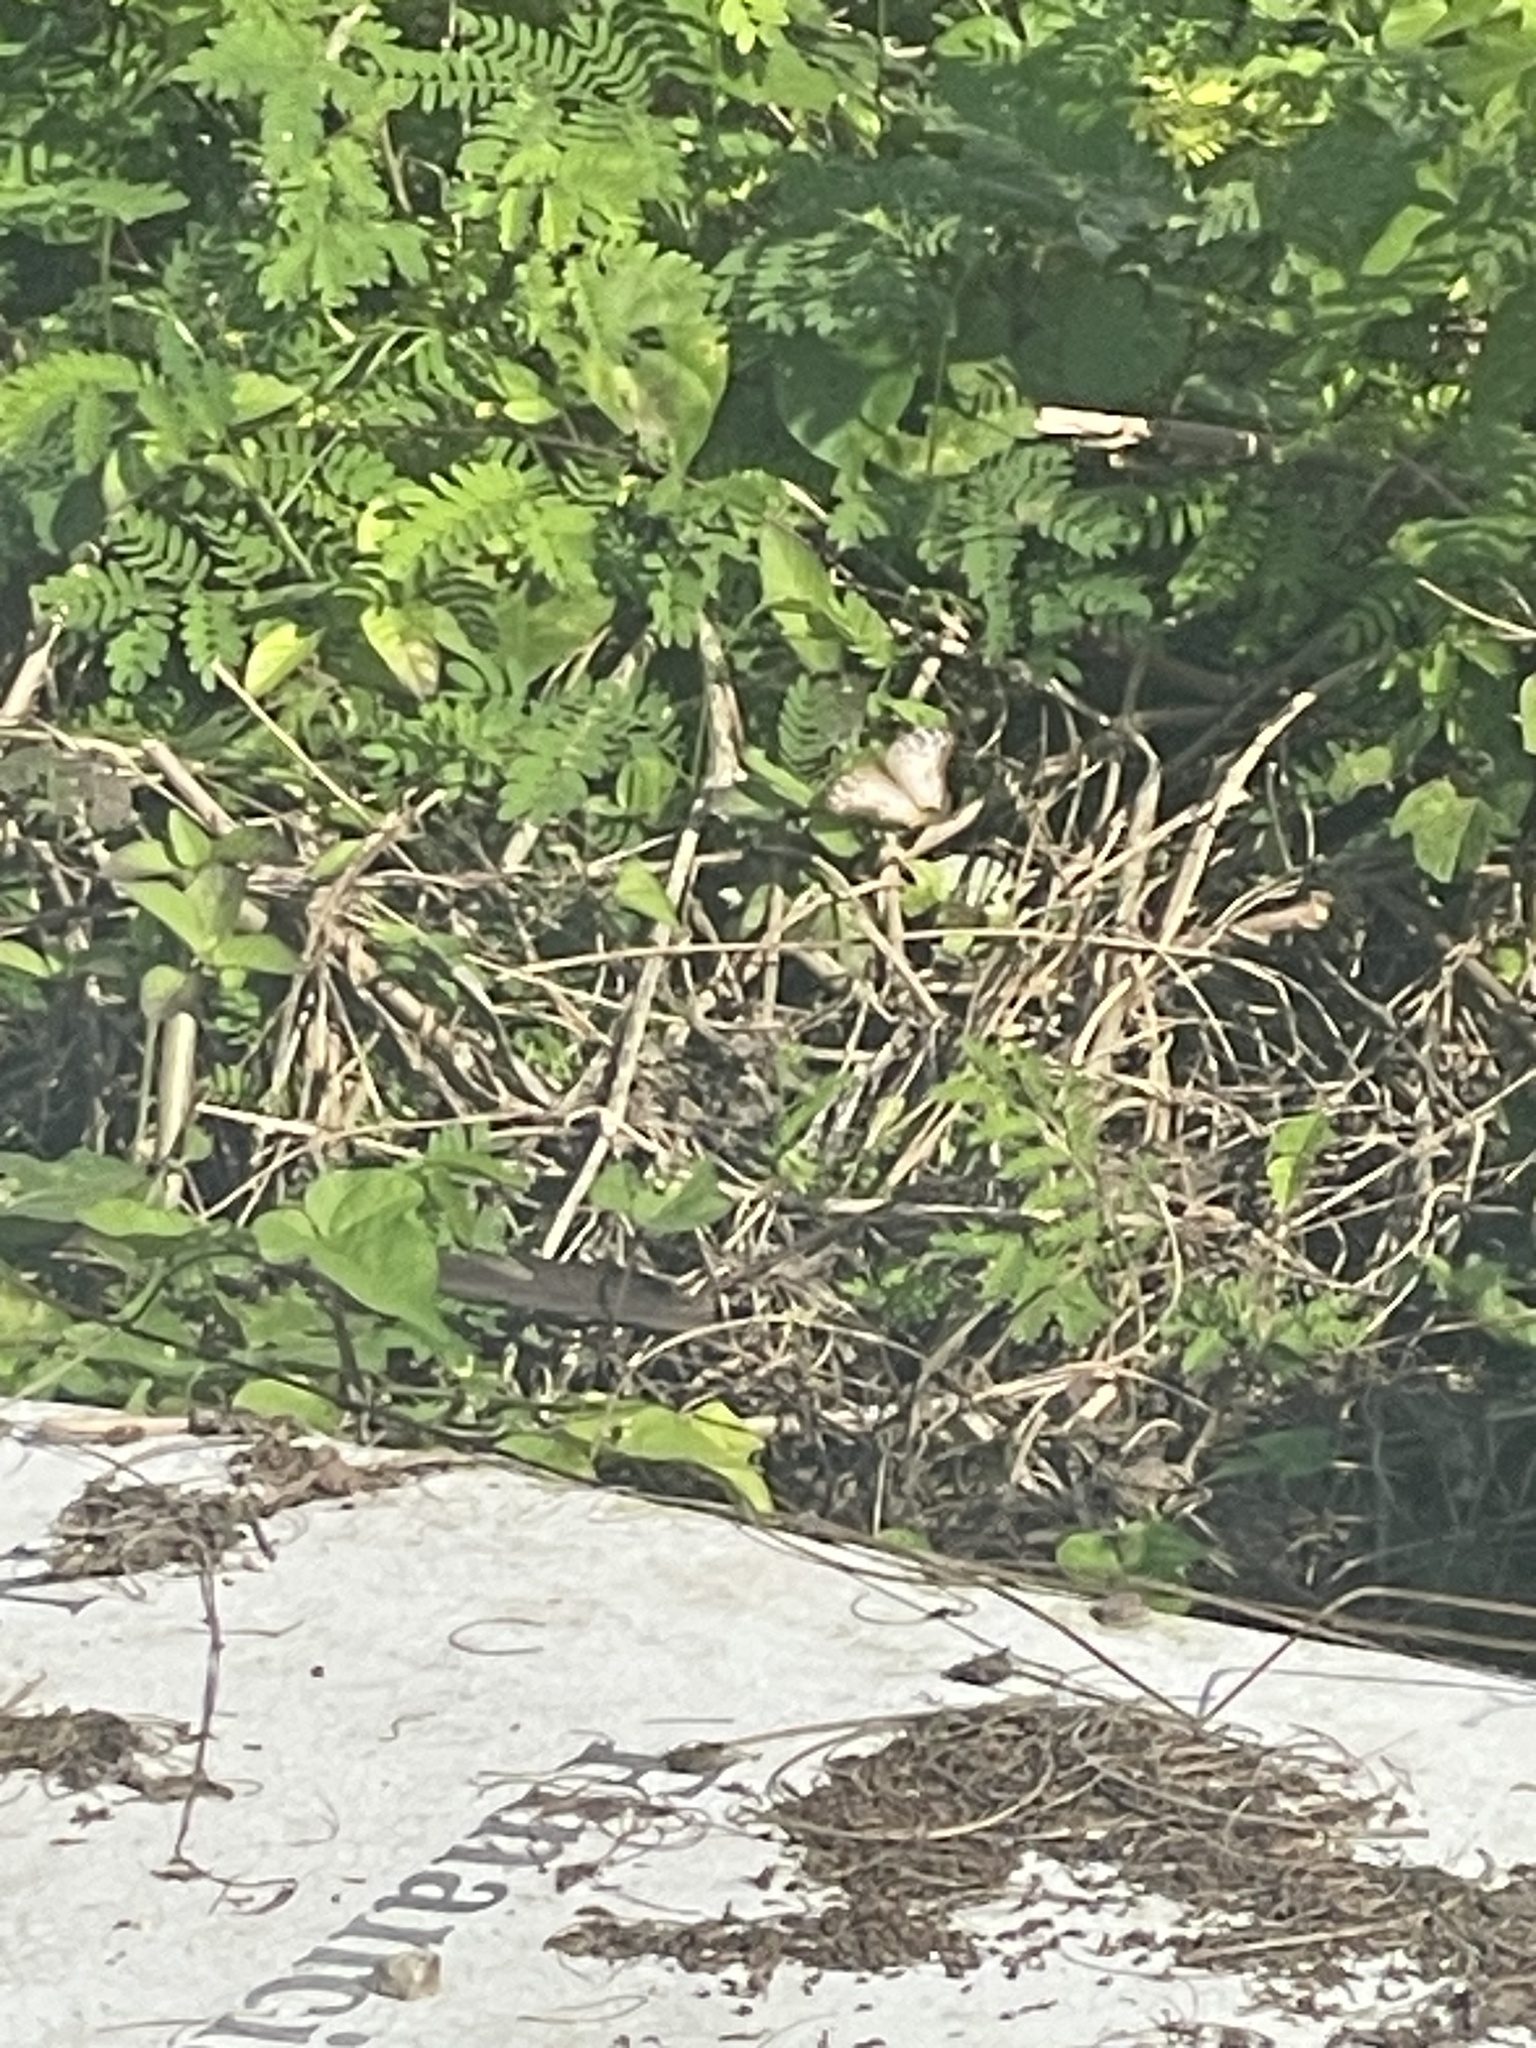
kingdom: Animalia
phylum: Arthropoda
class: Insecta
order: Lepidoptera
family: Nymphalidae
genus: Anartia
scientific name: Anartia jatrophae
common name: White peacock
